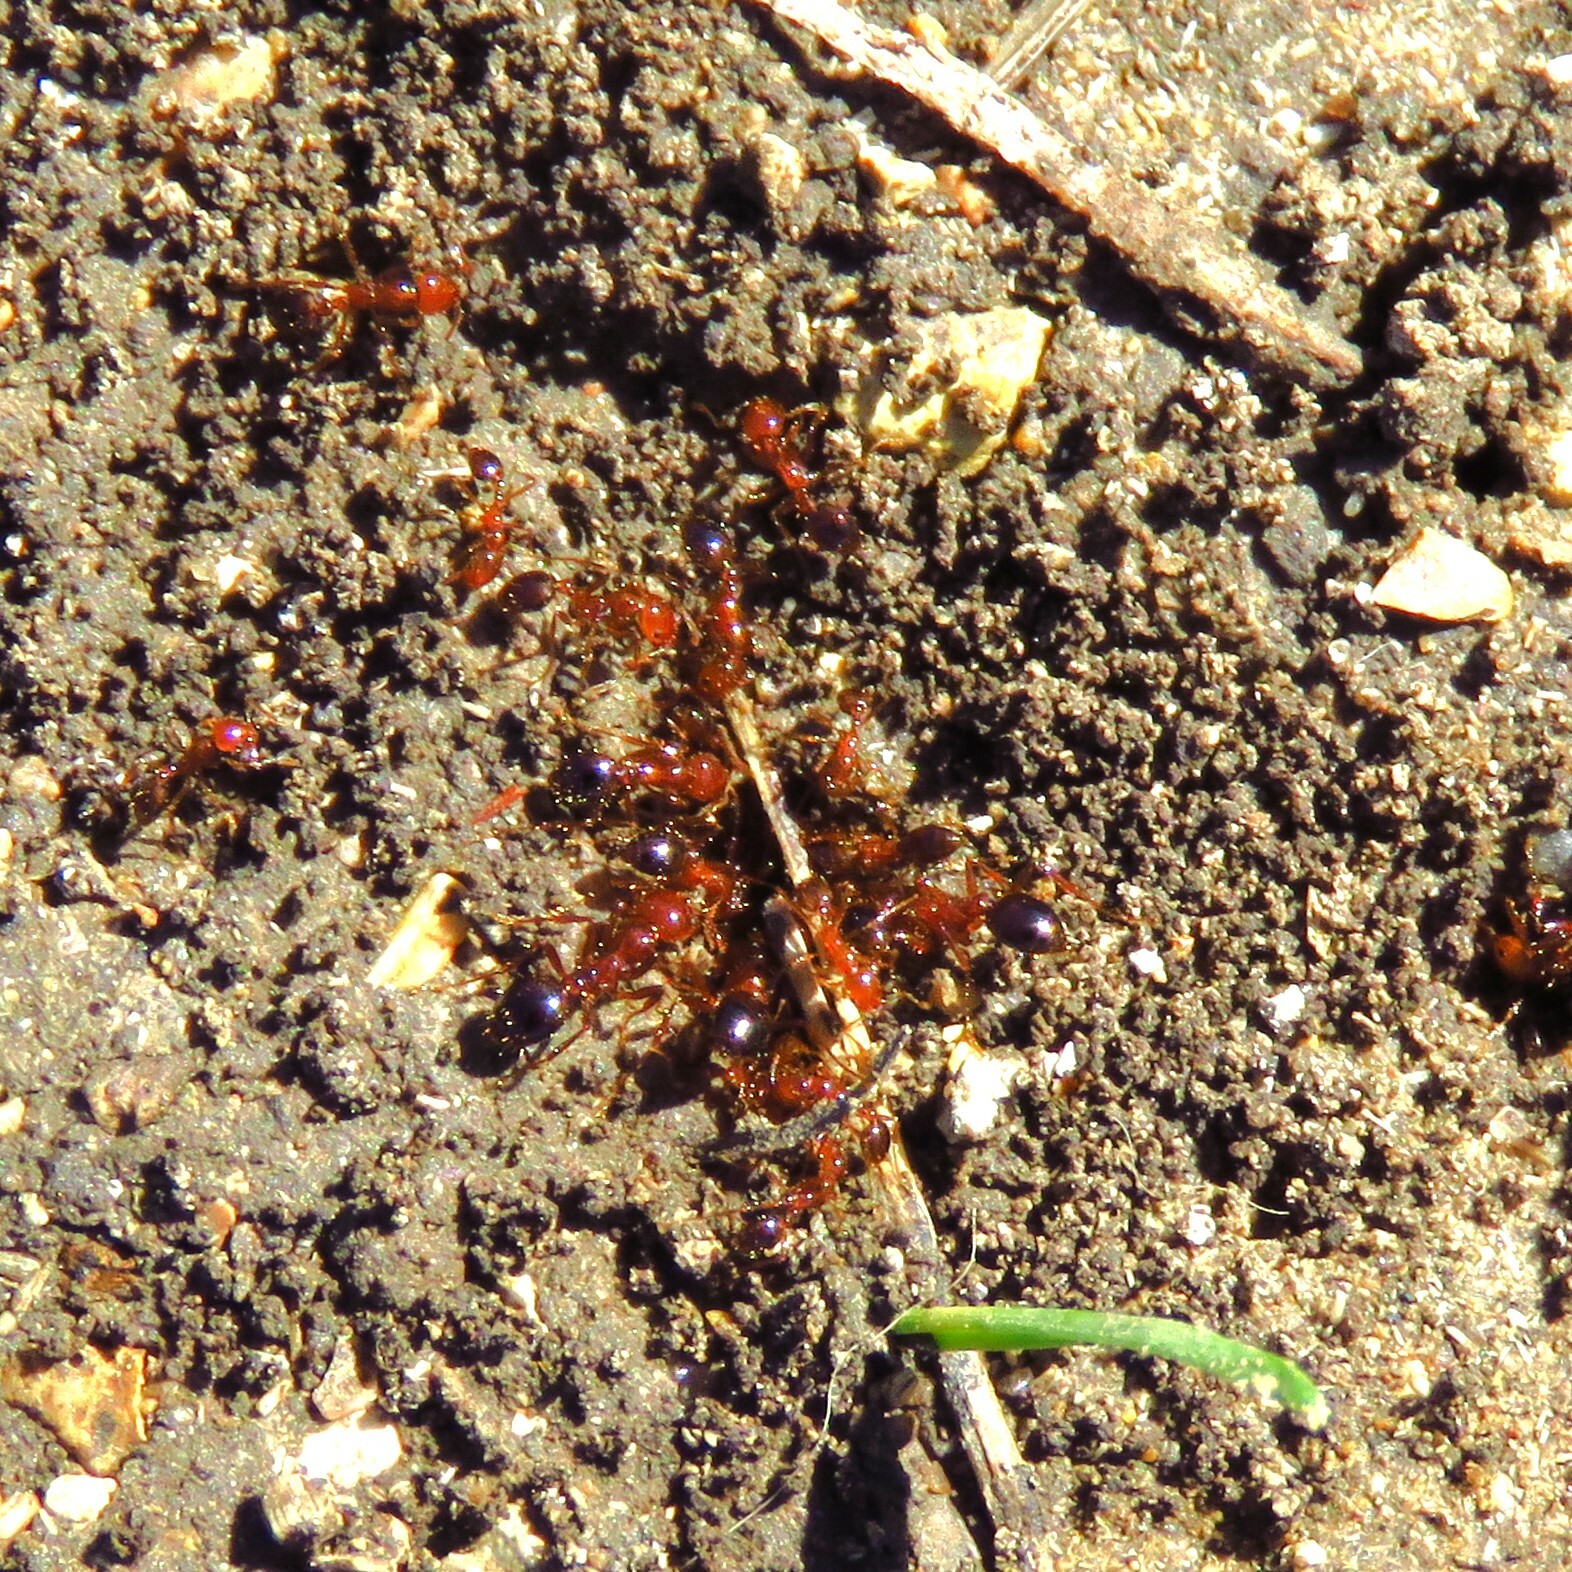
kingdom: Animalia
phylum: Arthropoda
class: Insecta
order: Hymenoptera
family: Formicidae
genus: Solenopsis
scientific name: Solenopsis invicta
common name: Red imported fire ant
